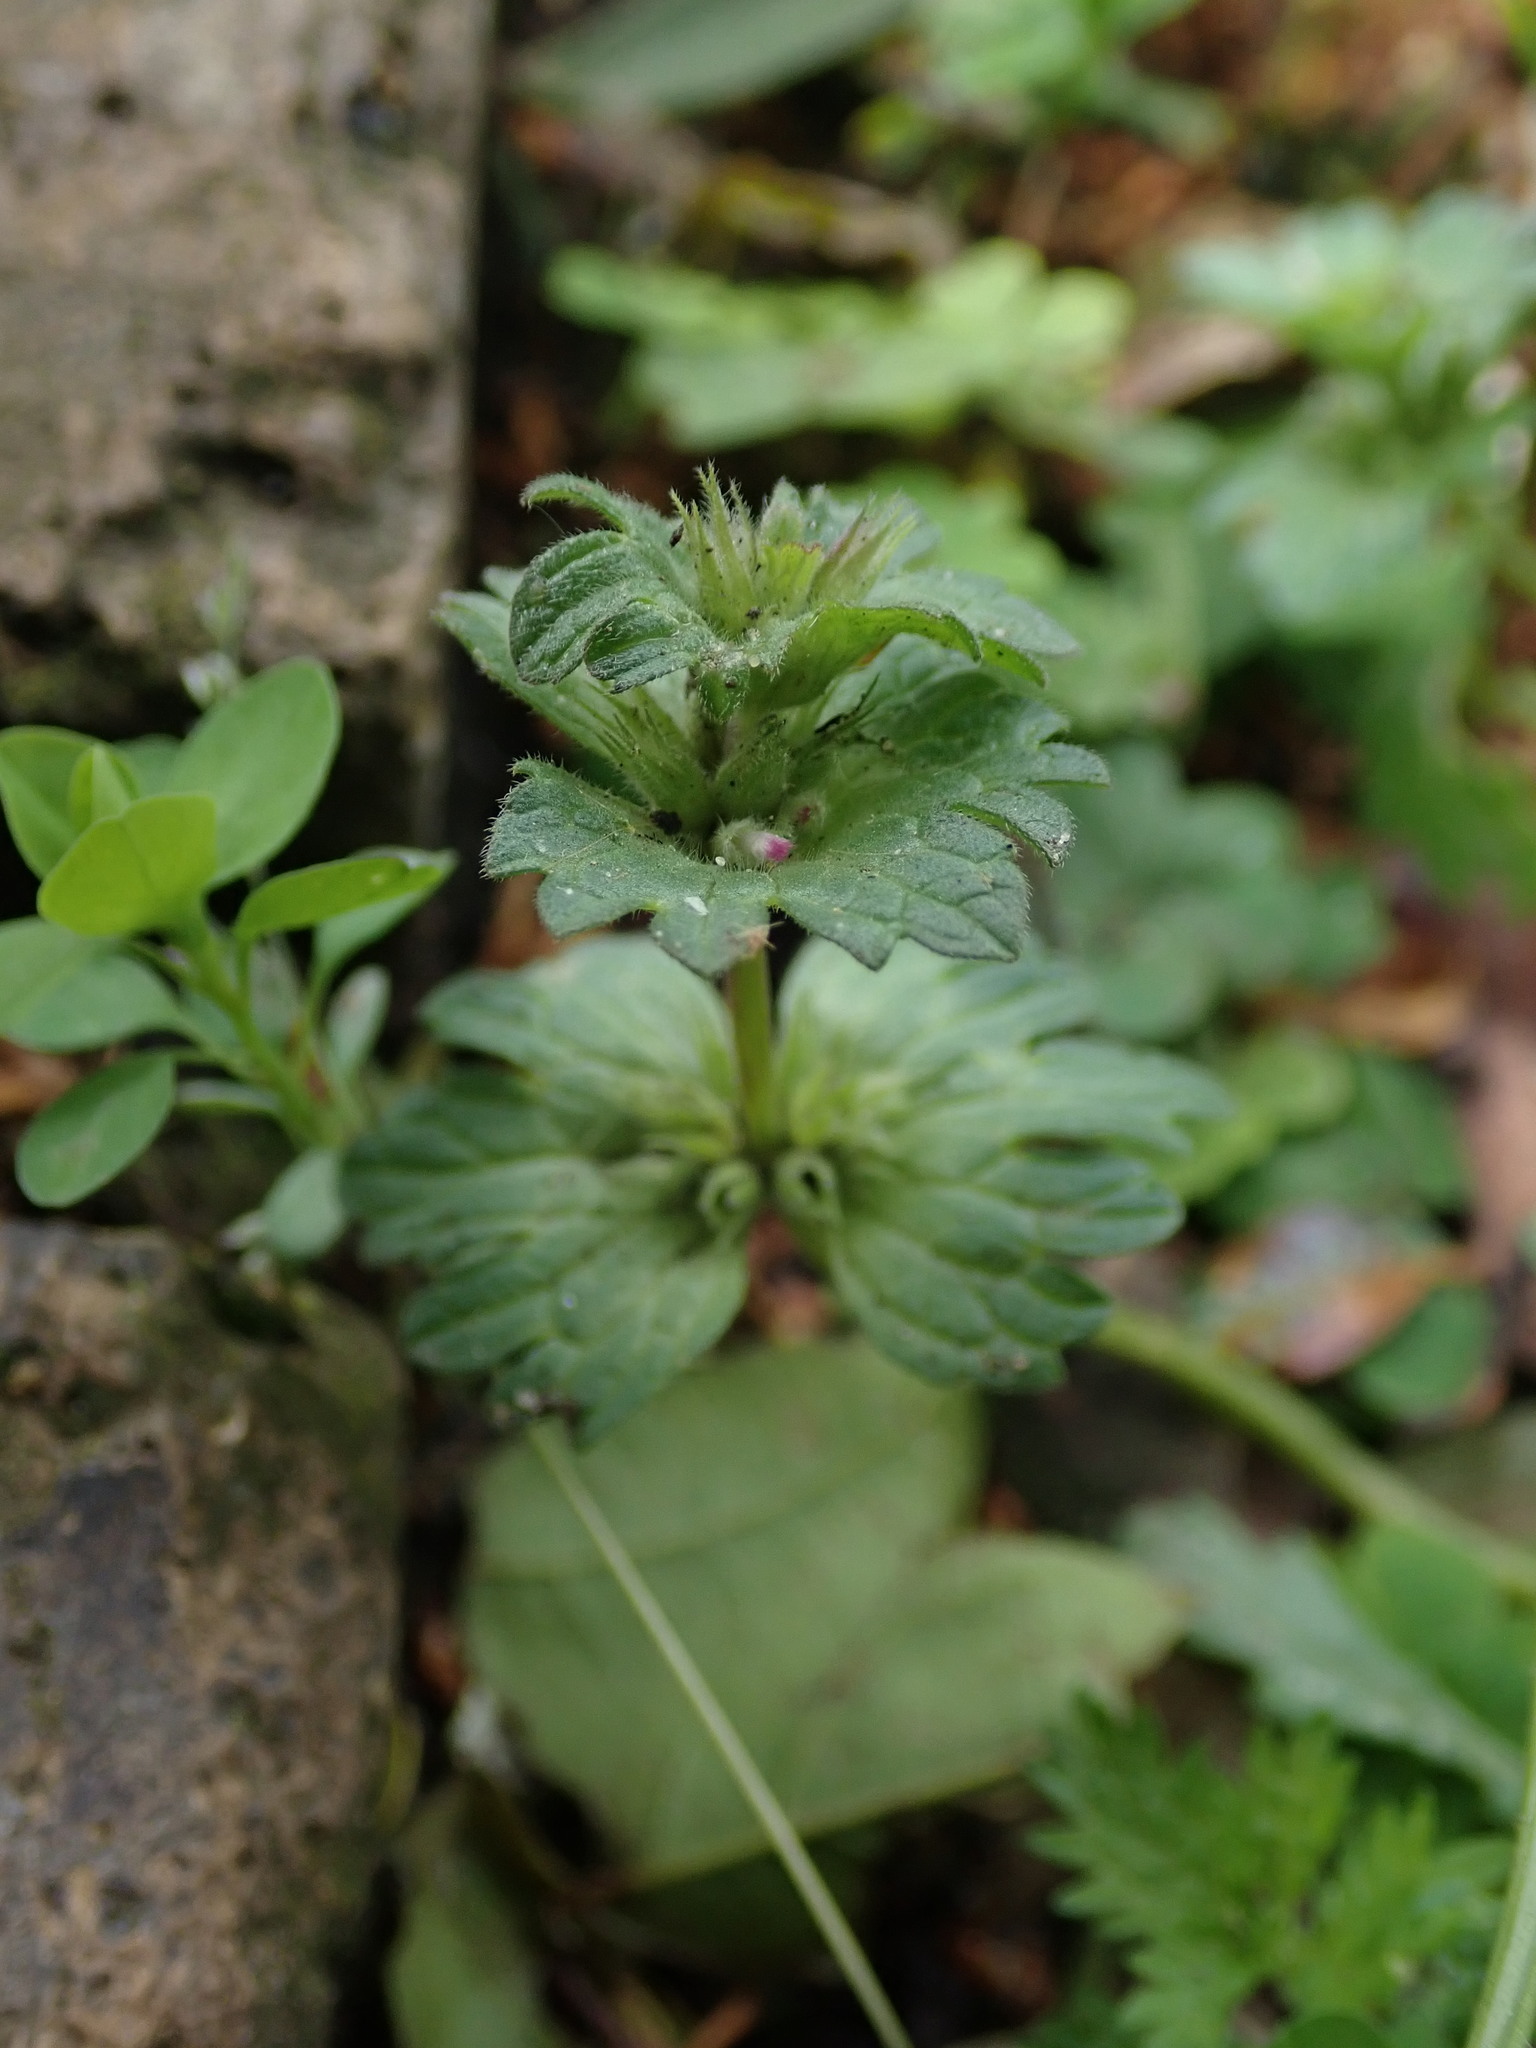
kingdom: Plantae
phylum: Tracheophyta
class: Magnoliopsida
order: Lamiales
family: Lamiaceae
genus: Lamium
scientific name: Lamium amplexicaule
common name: Henbit dead-nettle
